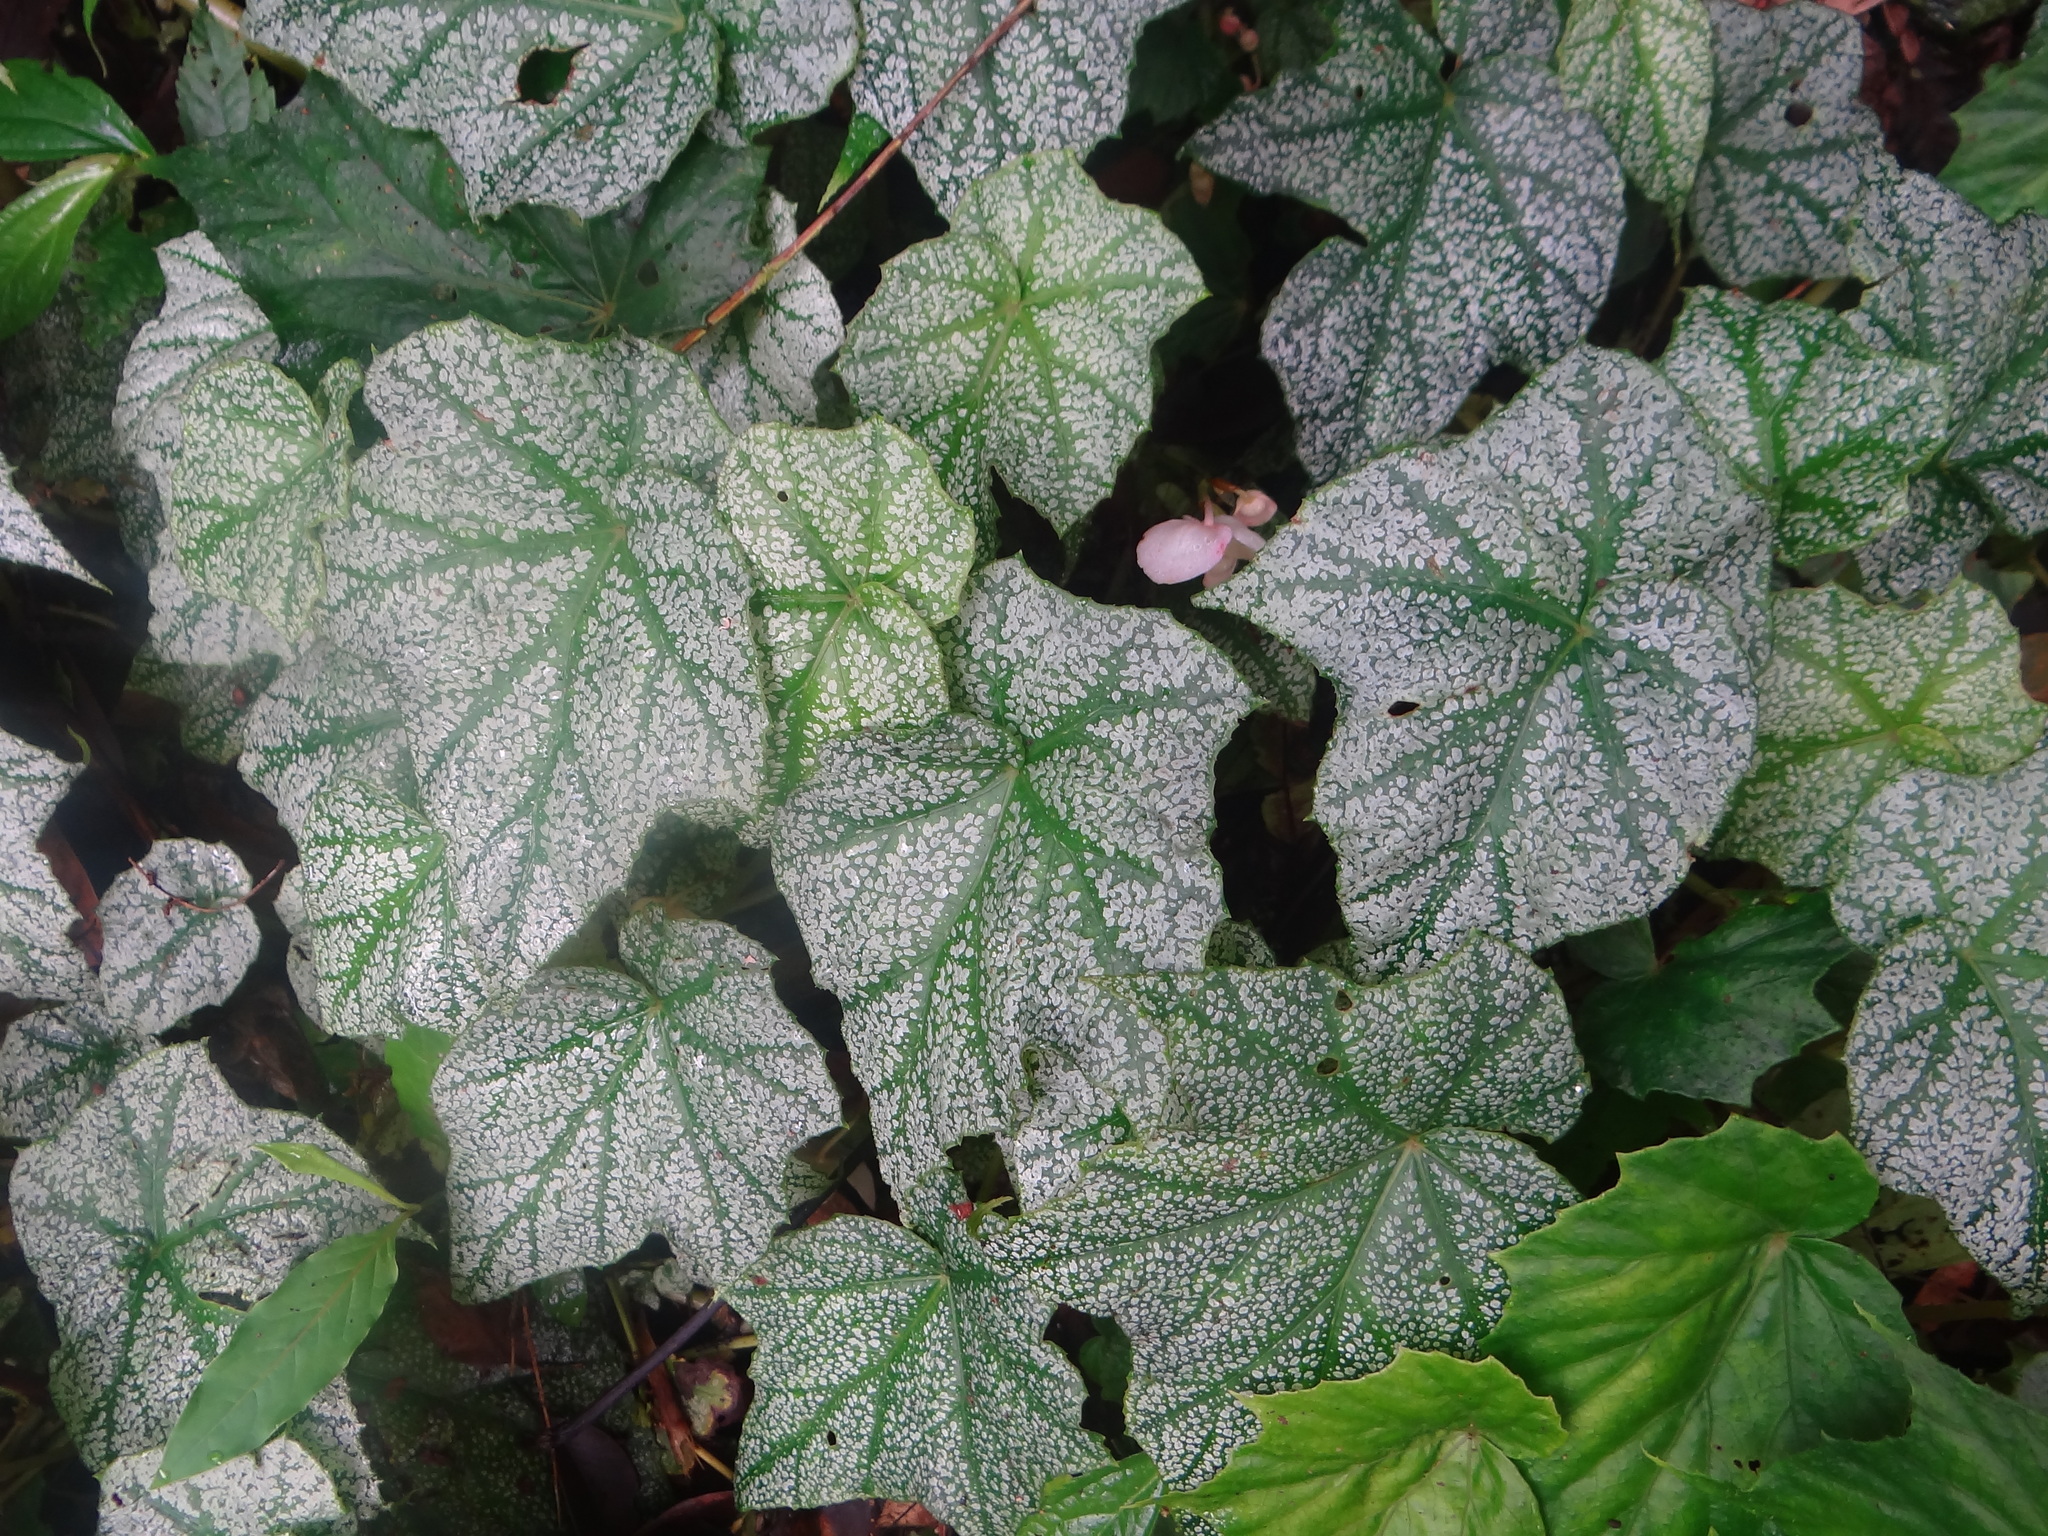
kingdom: Plantae
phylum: Tracheophyta
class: Magnoliopsida
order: Cucurbitales
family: Begoniaceae
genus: Begonia
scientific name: Begonia formosana
